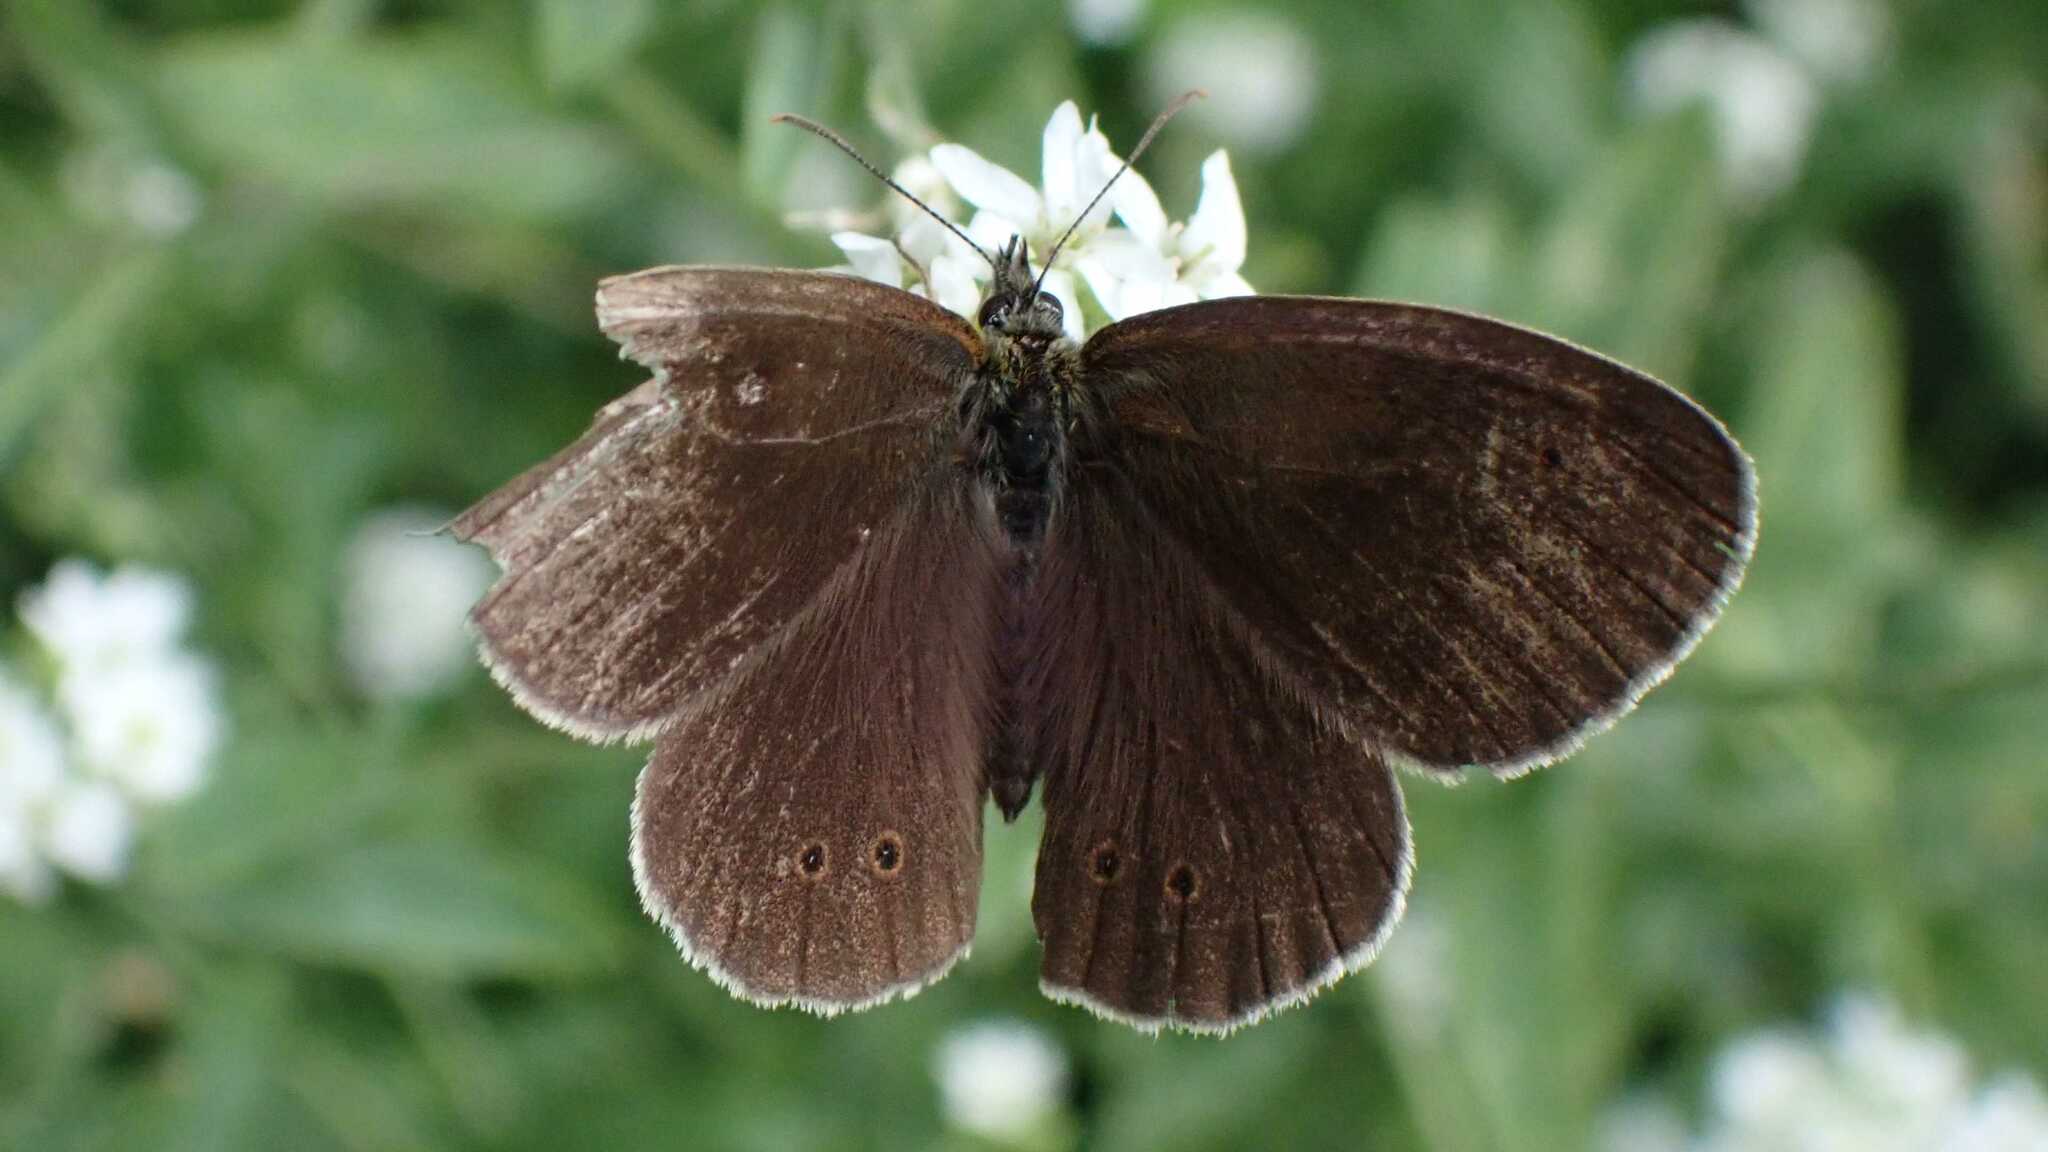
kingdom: Animalia
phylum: Arthropoda
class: Insecta
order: Lepidoptera
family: Nymphalidae
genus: Aphantopus
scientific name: Aphantopus hyperantus
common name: Ringlet
